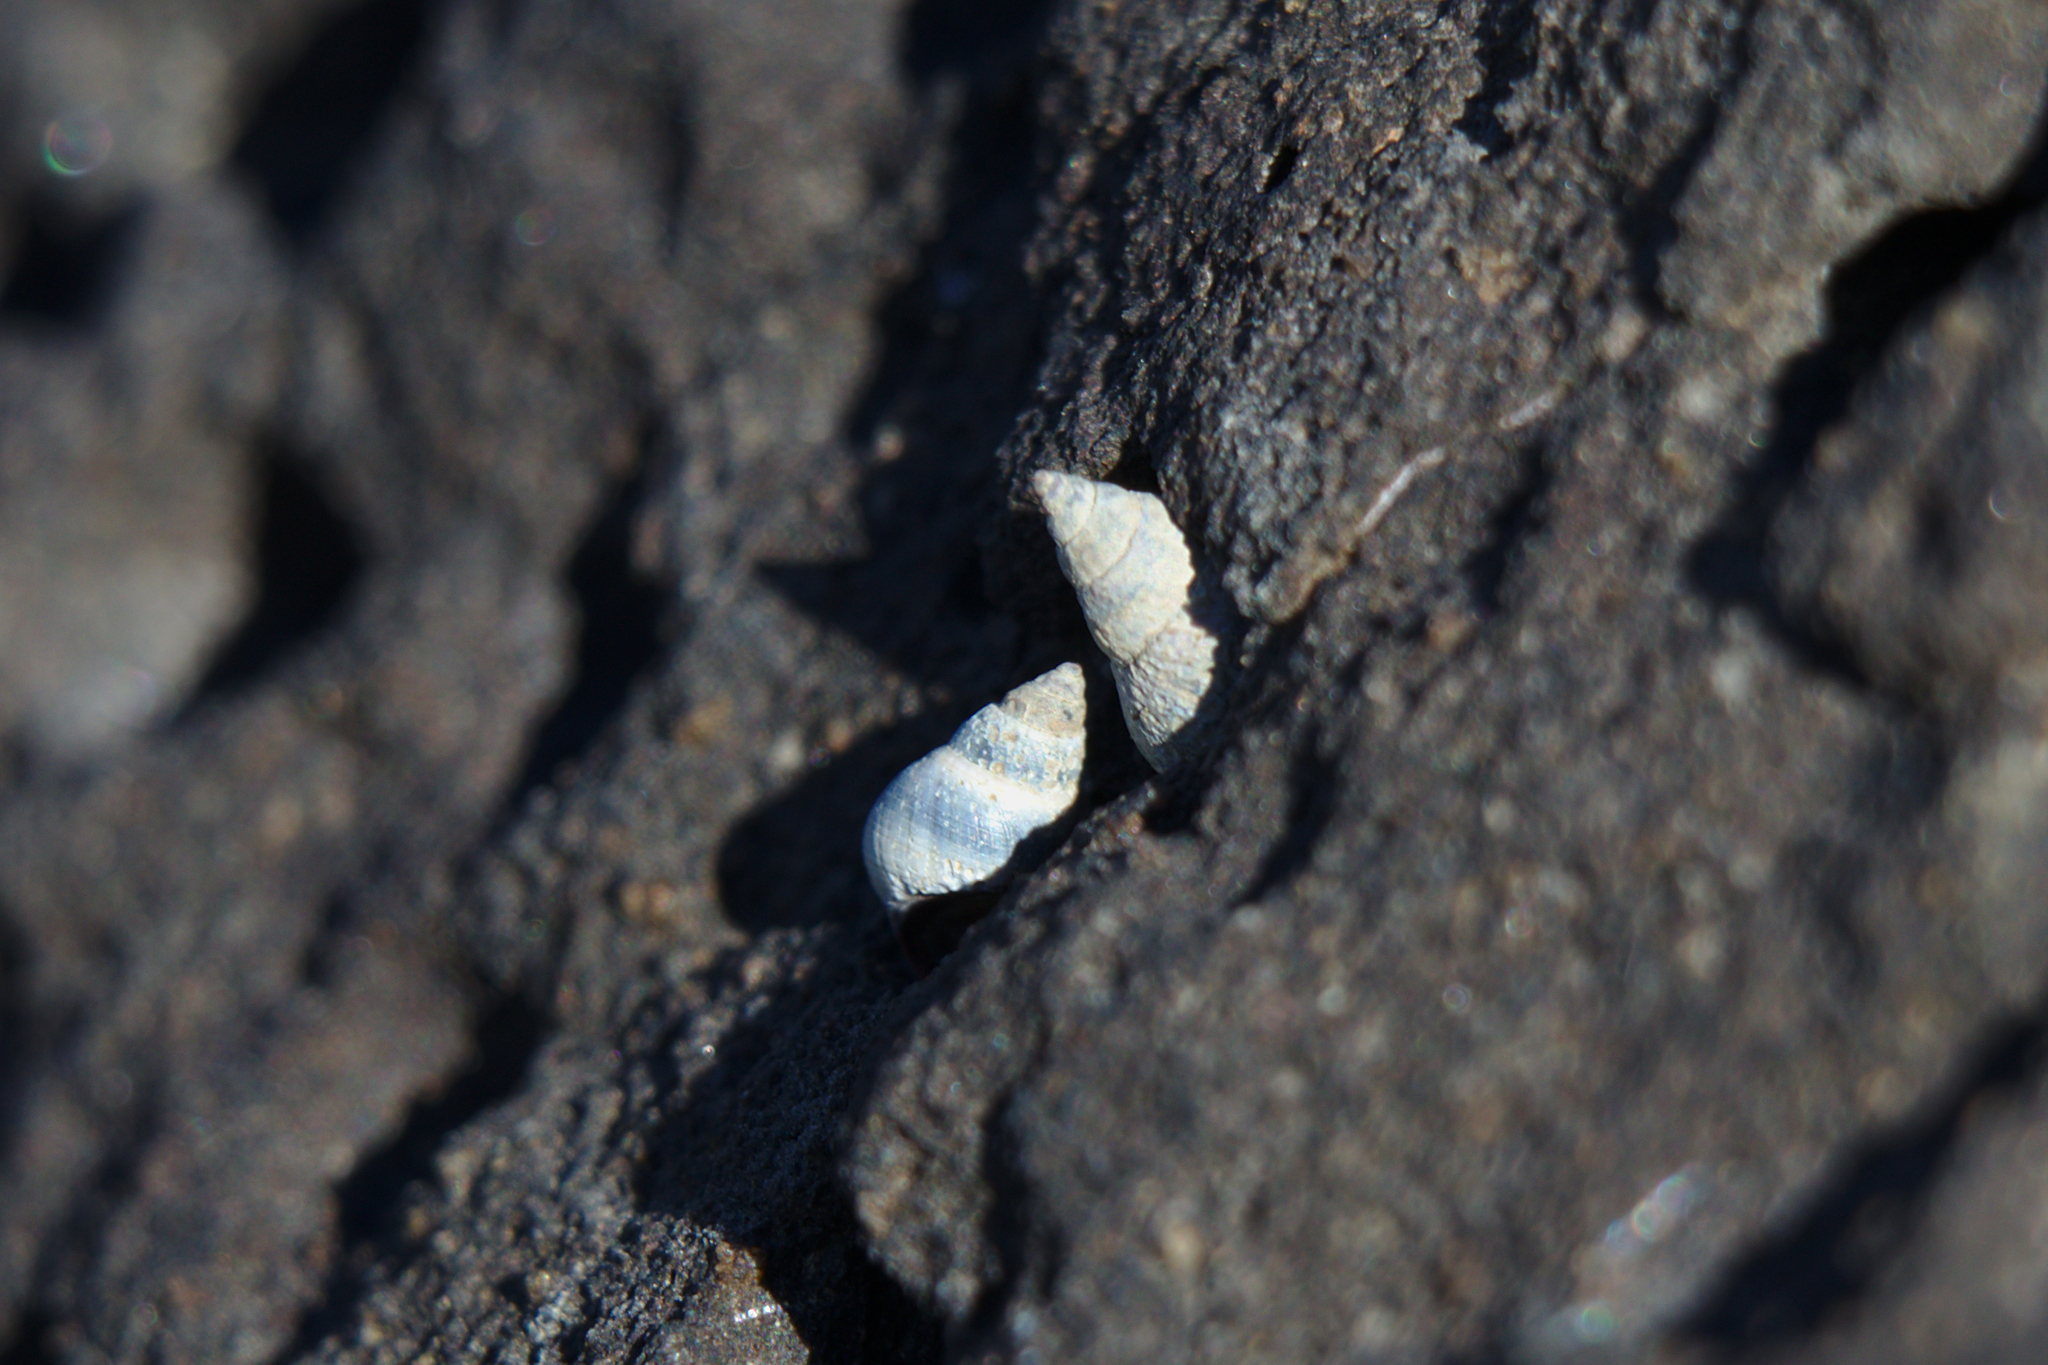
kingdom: Animalia
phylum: Mollusca
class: Gastropoda
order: Littorinimorpha
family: Littorinidae
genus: Austrolittorina
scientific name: Austrolittorina antipodum
